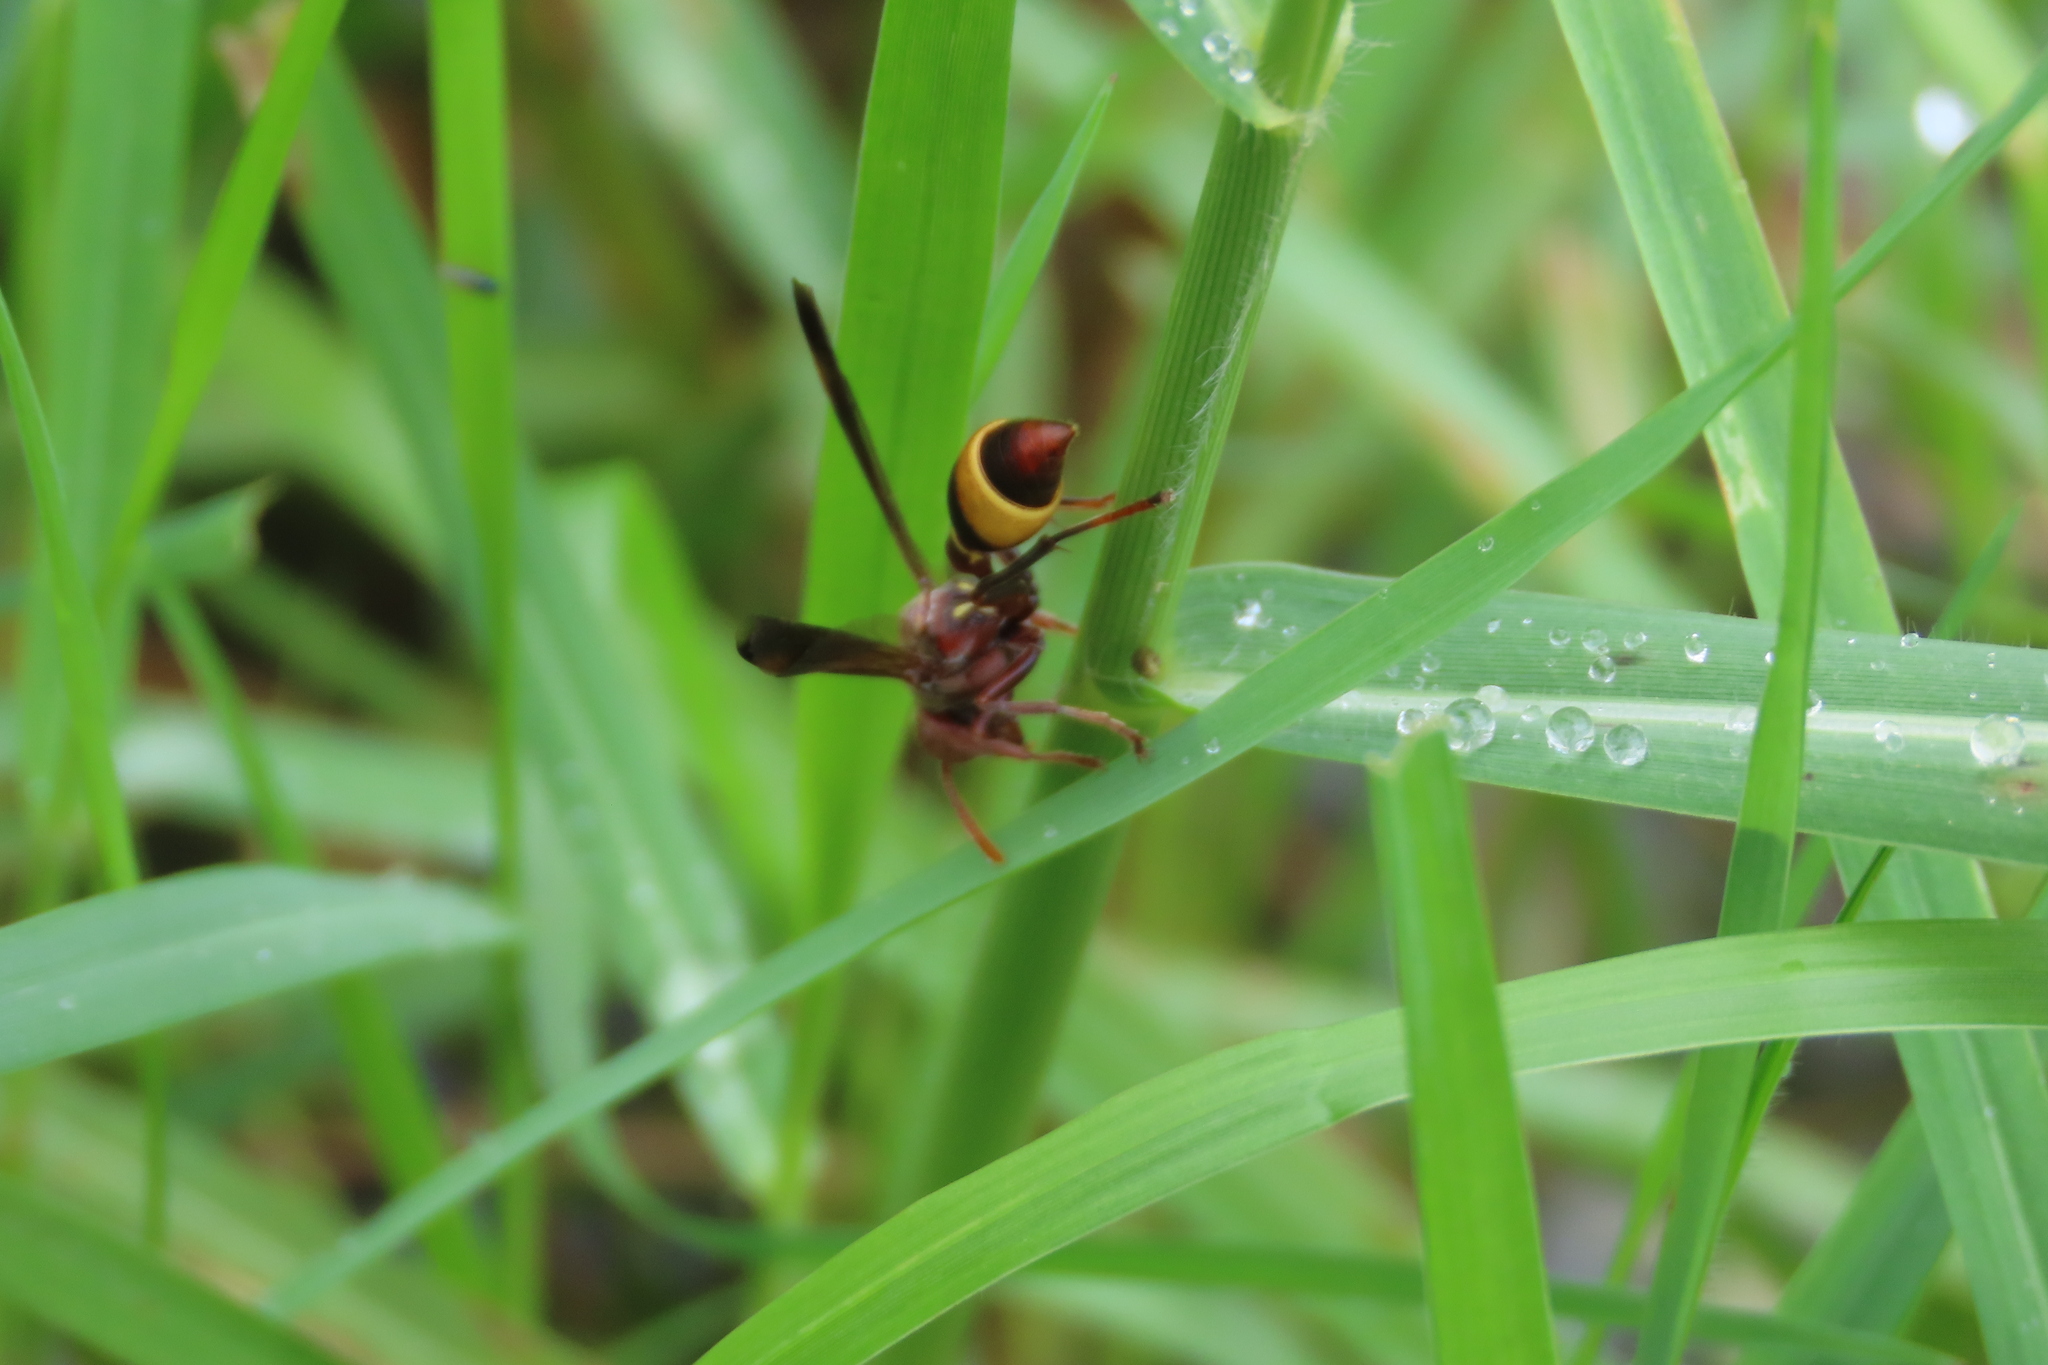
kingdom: Animalia
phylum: Arthropoda
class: Insecta
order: Hymenoptera
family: Vespidae
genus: Ropalidia
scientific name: Ropalidia
